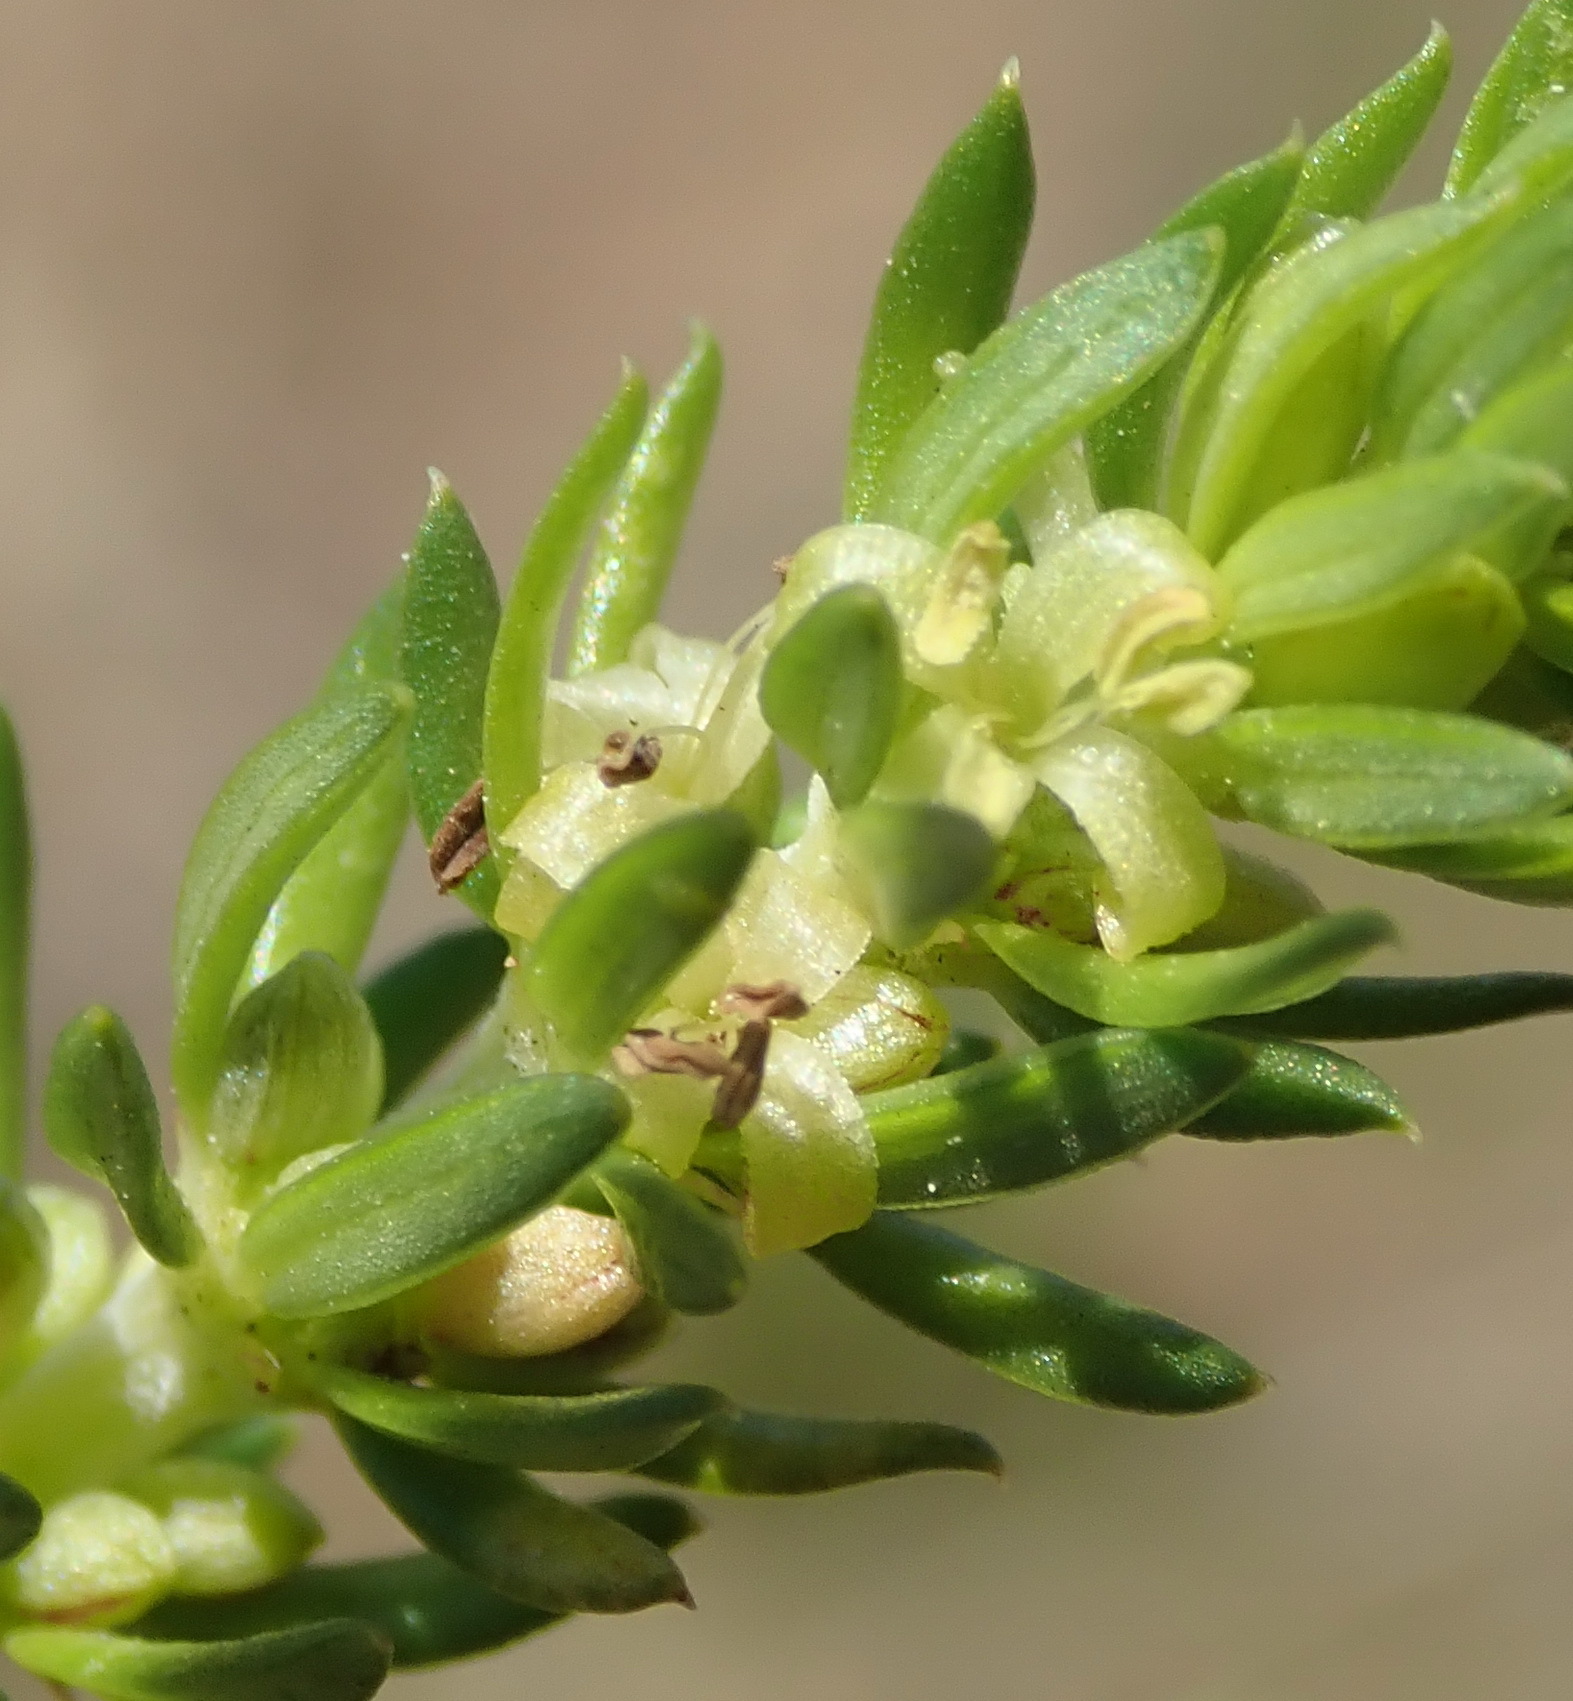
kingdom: Plantae
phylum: Tracheophyta
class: Magnoliopsida
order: Gentianales
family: Rubiaceae
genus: Anthospermum
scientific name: Anthospermum aethiopicum
